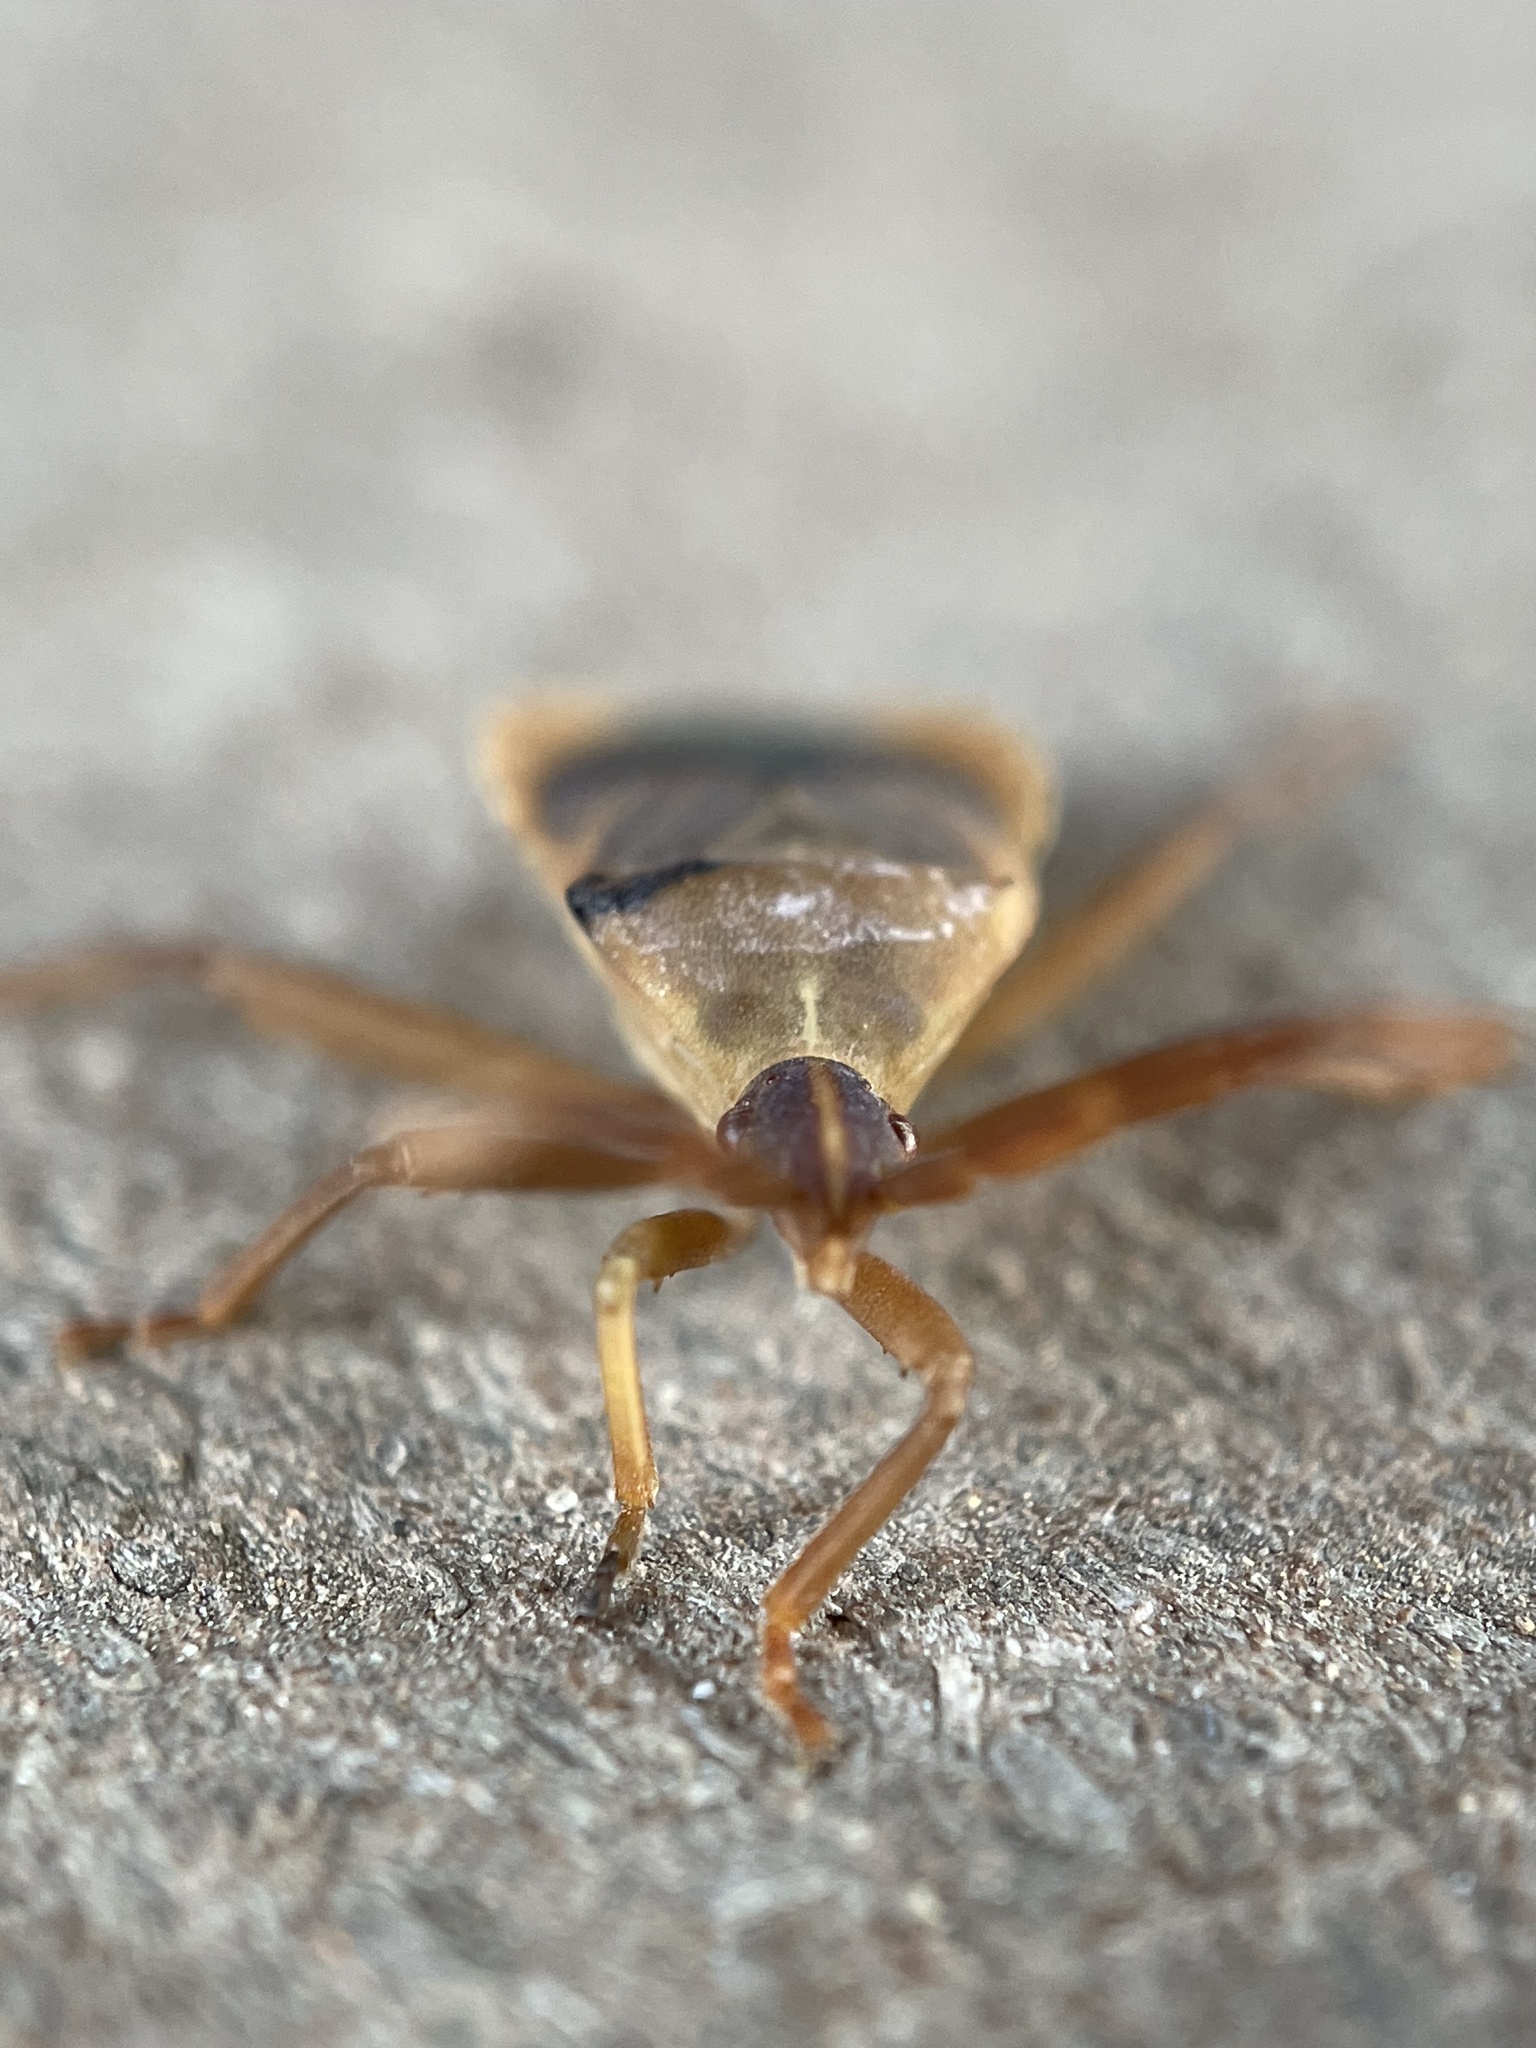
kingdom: Animalia
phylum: Arthropoda
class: Insecta
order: Hemiptera
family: Coreidae
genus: Chelinidea
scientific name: Chelinidea vittiger
